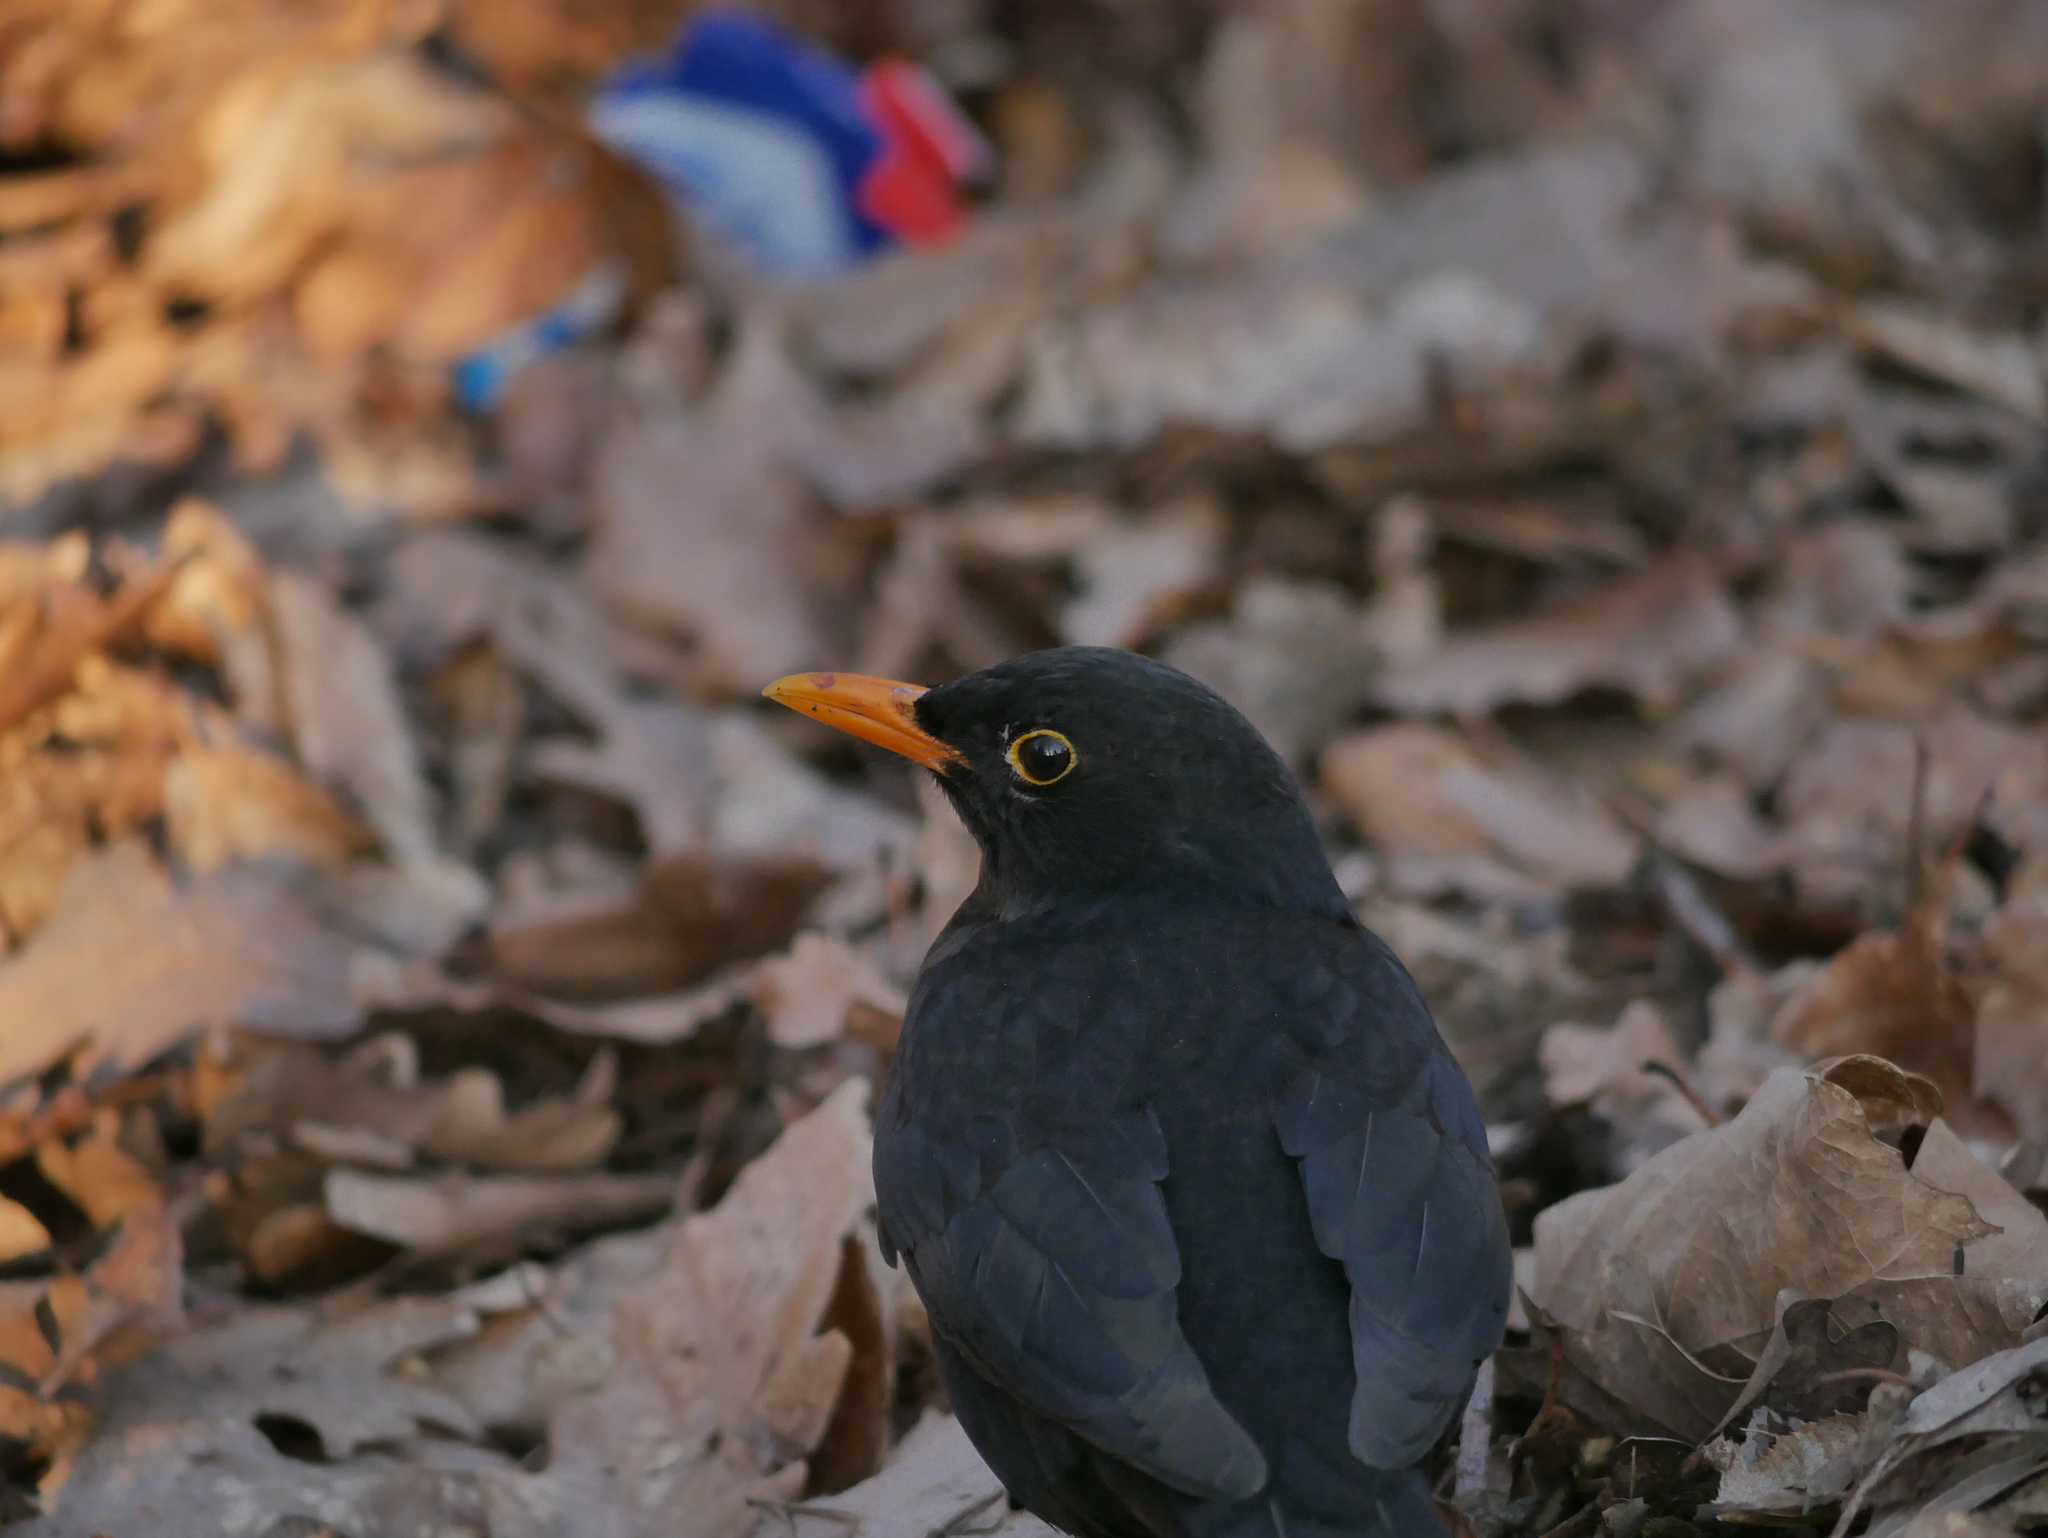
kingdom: Animalia
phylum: Chordata
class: Aves
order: Passeriformes
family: Turdidae
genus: Turdus
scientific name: Turdus merula
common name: Common blackbird
